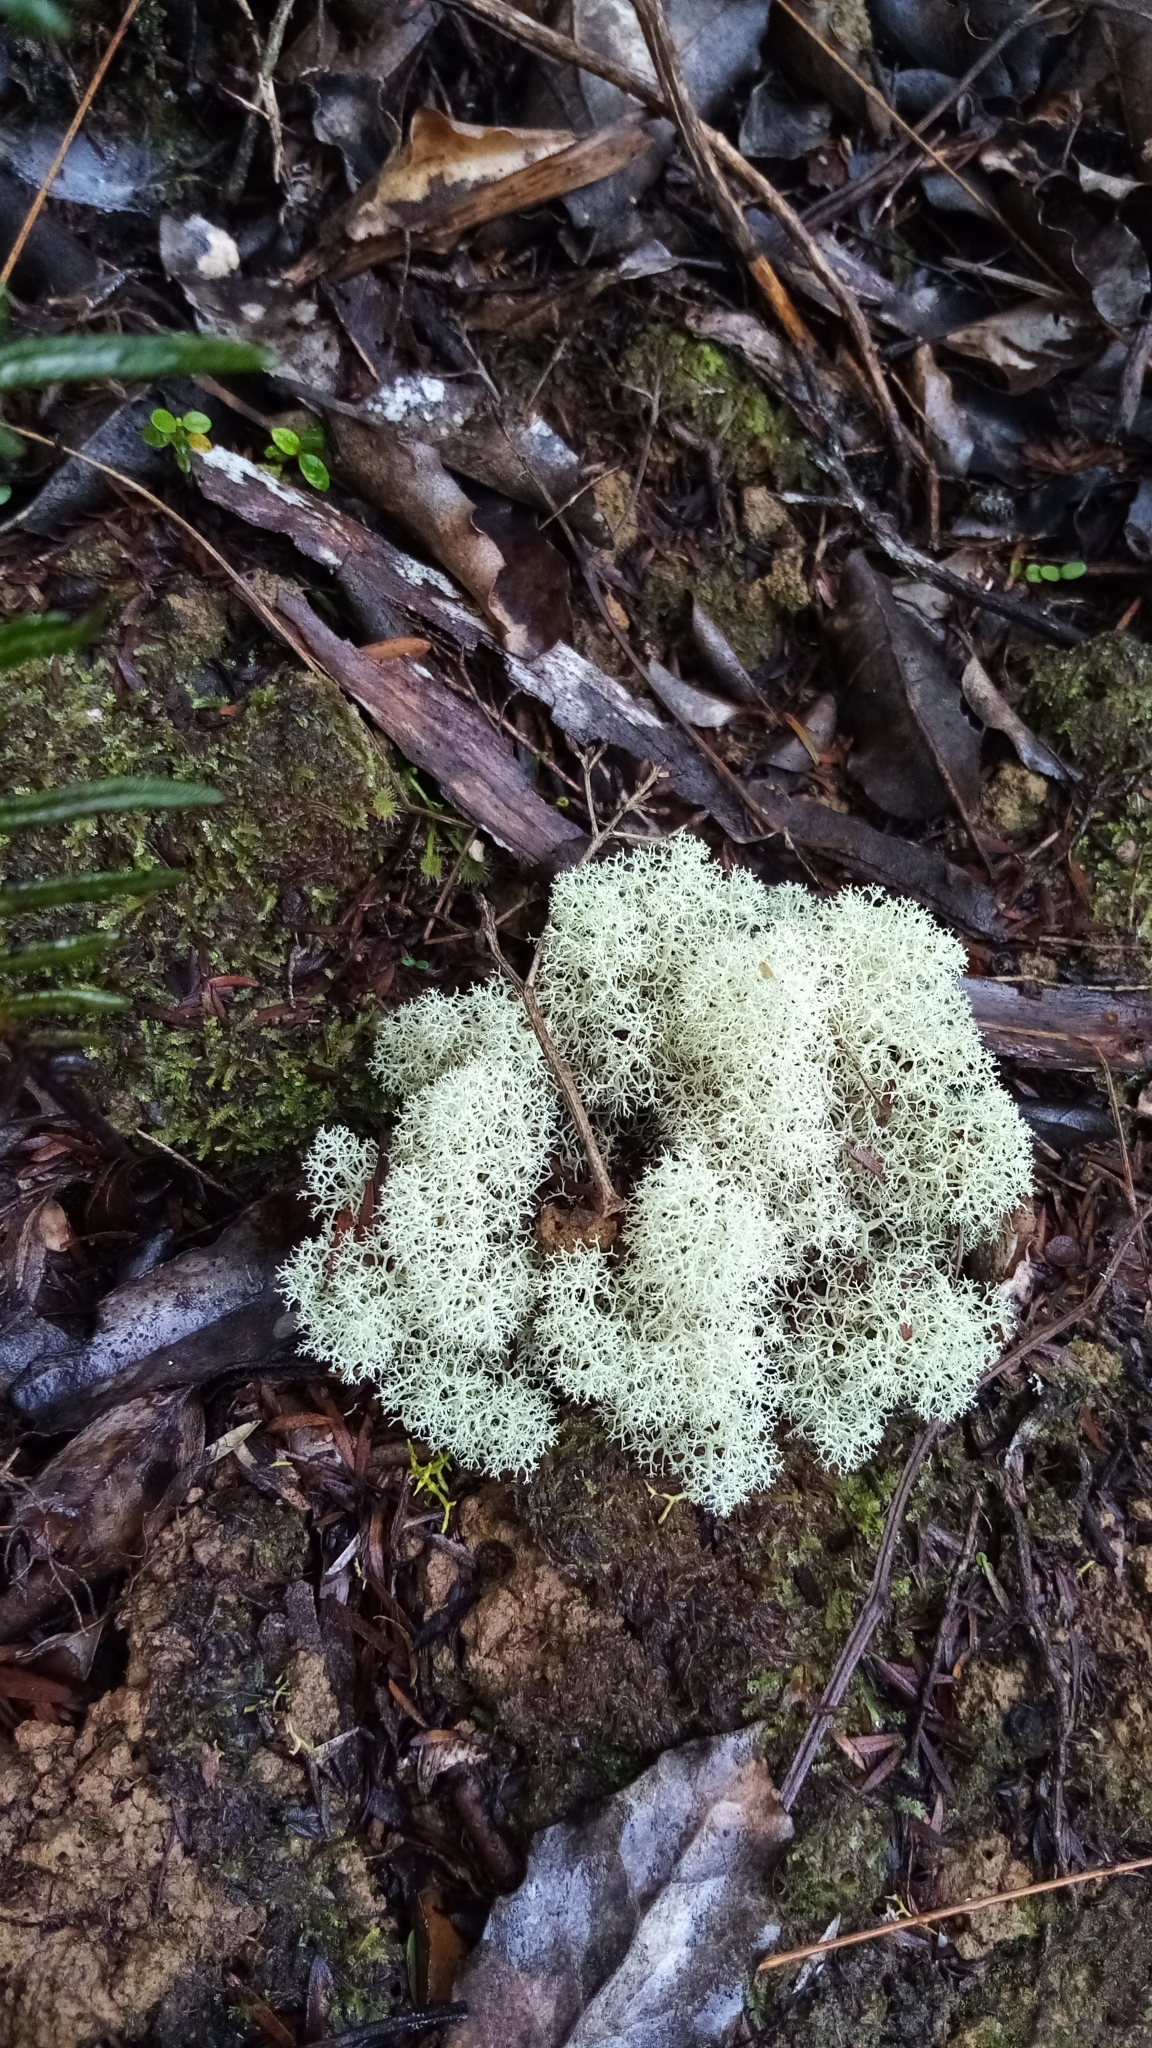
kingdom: Fungi
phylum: Ascomycota
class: Lecanoromycetes
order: Lecanorales
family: Cladoniaceae
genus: Cladonia
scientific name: Cladonia confusa
